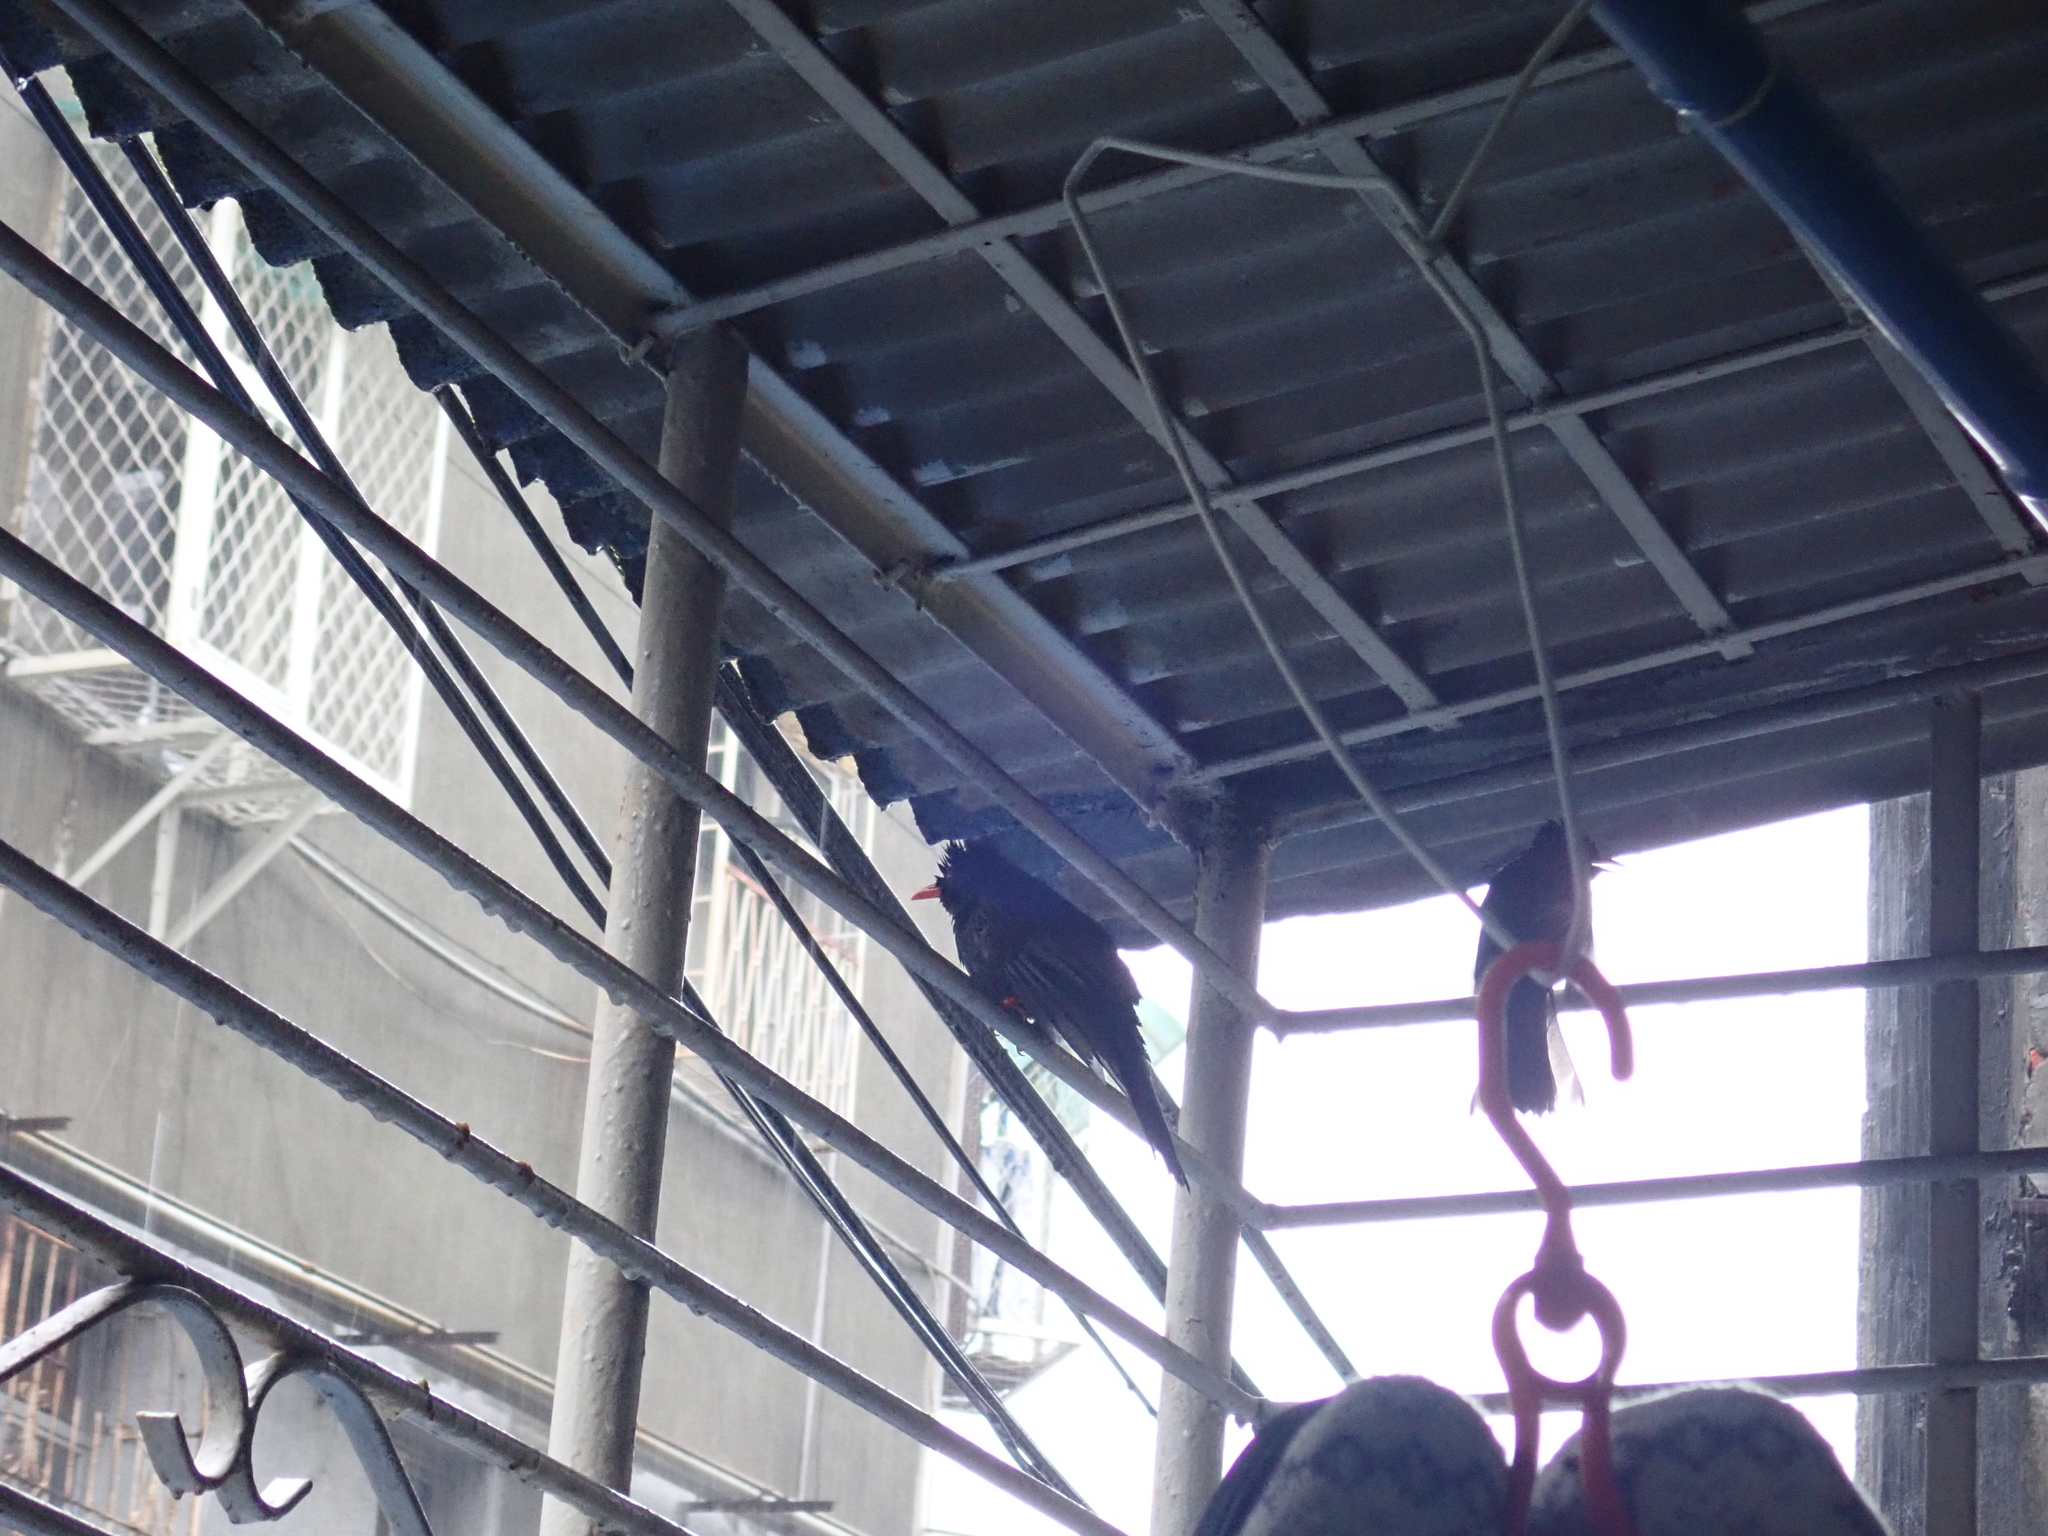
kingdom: Animalia
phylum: Chordata
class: Aves
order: Passeriformes
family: Pycnonotidae
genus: Hypsipetes
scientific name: Hypsipetes leucocephalus
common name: Black bulbul
